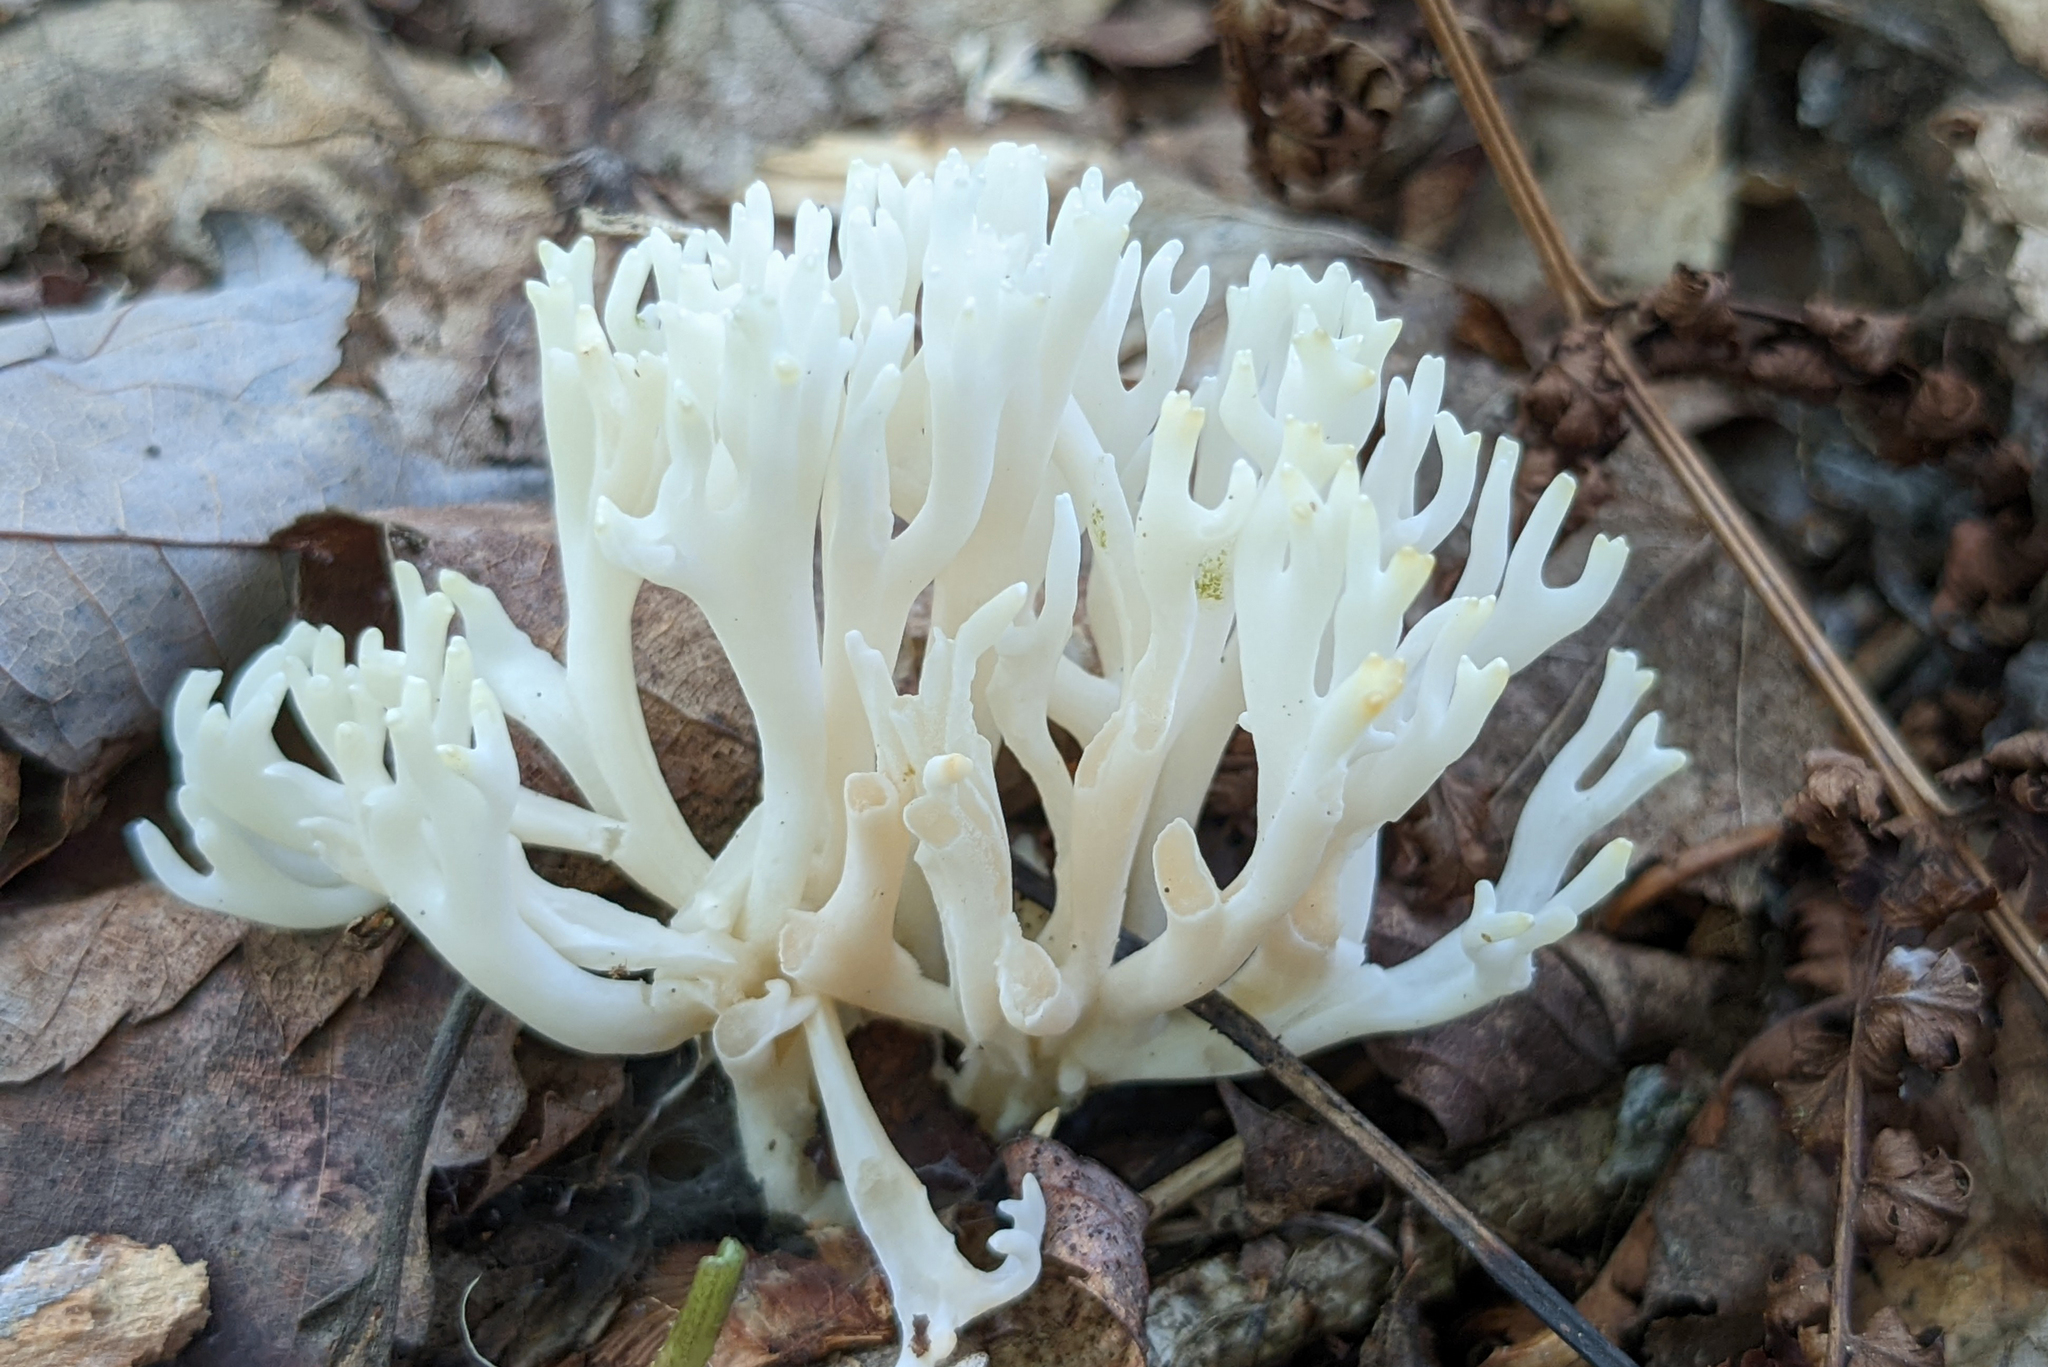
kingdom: Fungi
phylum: Basidiomycota
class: Agaricomycetes
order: Agaricales
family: Clavariaceae
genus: Ramariopsis
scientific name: Ramariopsis kunzei
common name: Ivory coral
